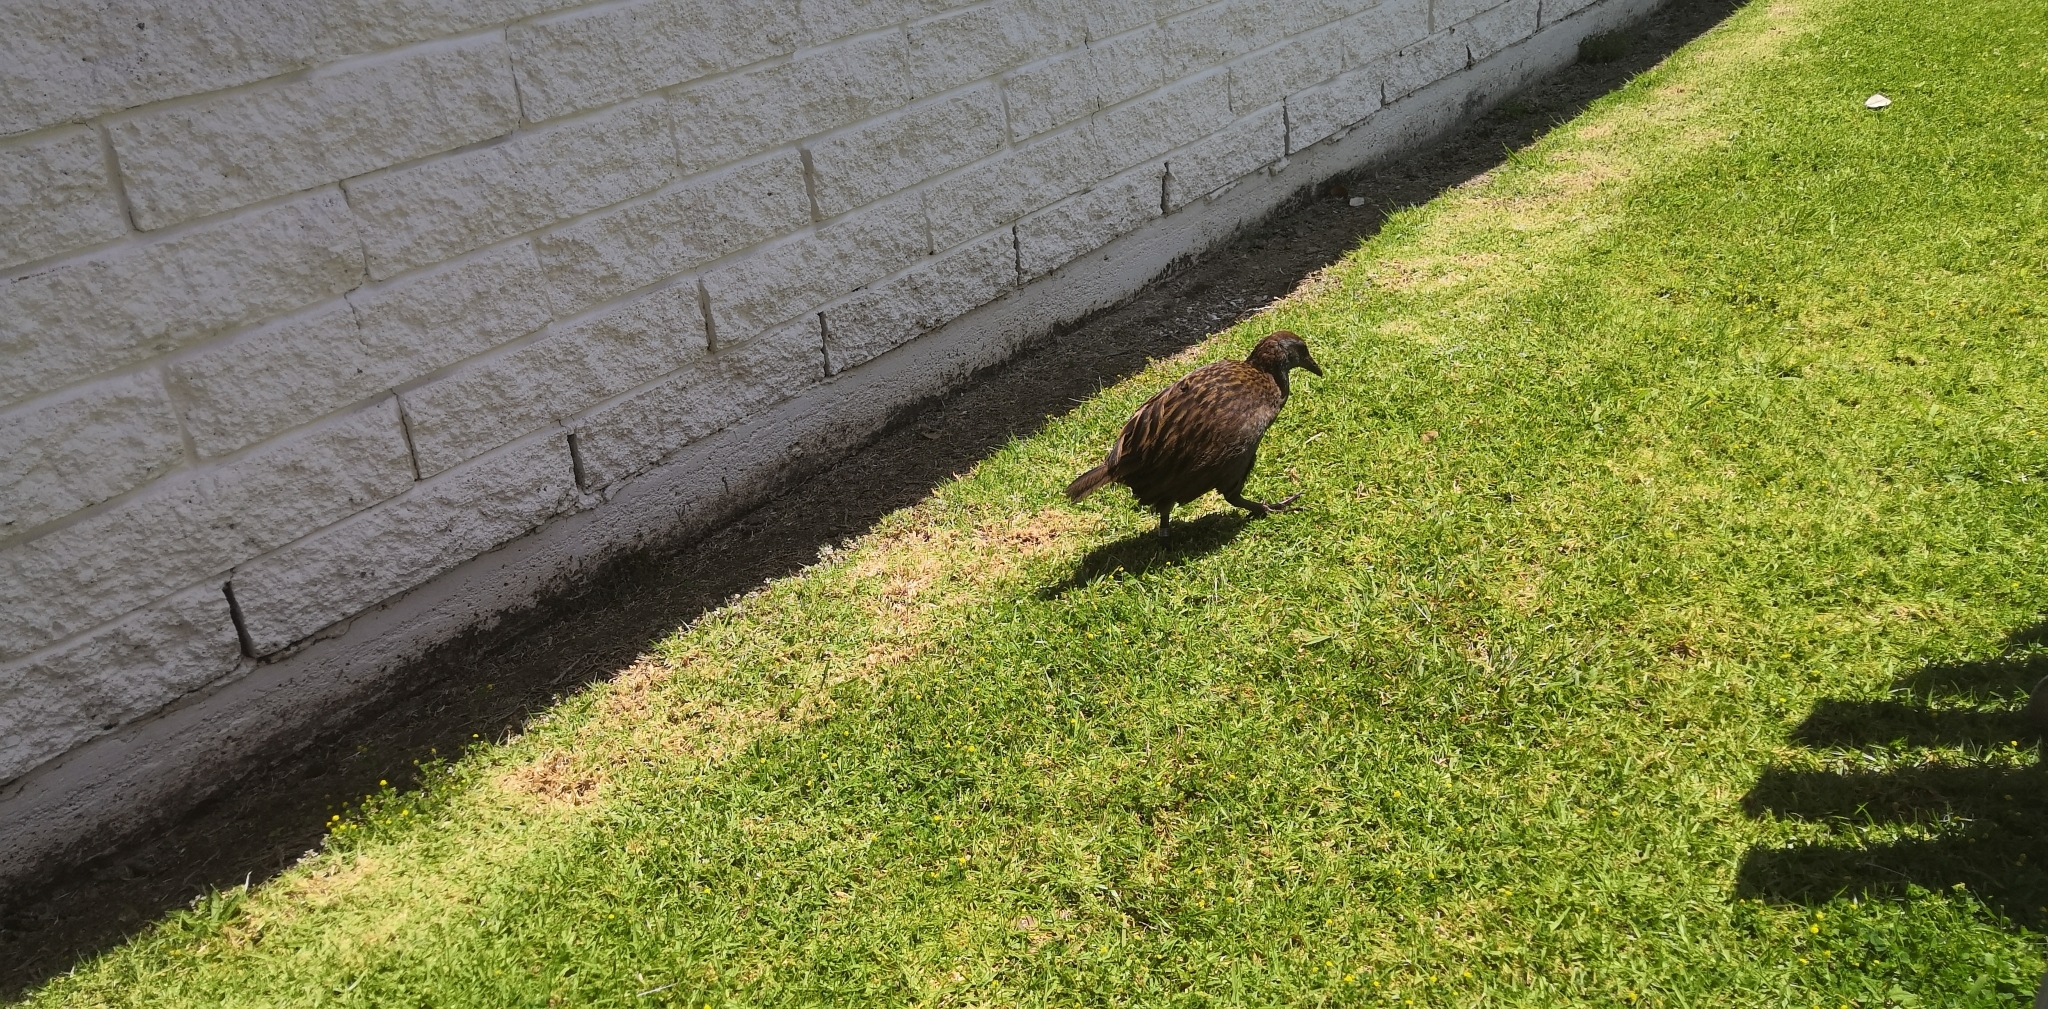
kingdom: Animalia
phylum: Chordata
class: Aves
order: Gruiformes
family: Rallidae
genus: Gallirallus
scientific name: Gallirallus australis
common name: Weka
